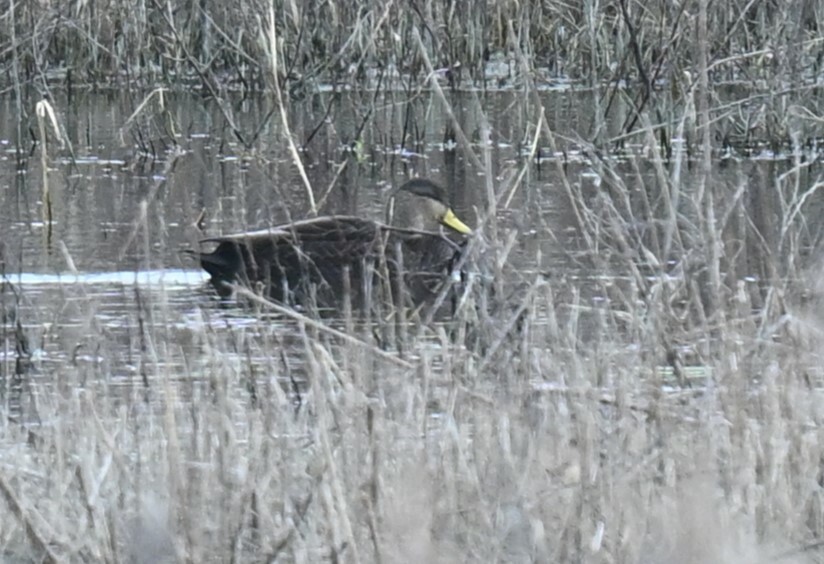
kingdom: Animalia
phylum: Chordata
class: Aves
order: Anseriformes
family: Anatidae
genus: Anas
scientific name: Anas rubripes
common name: American black duck
